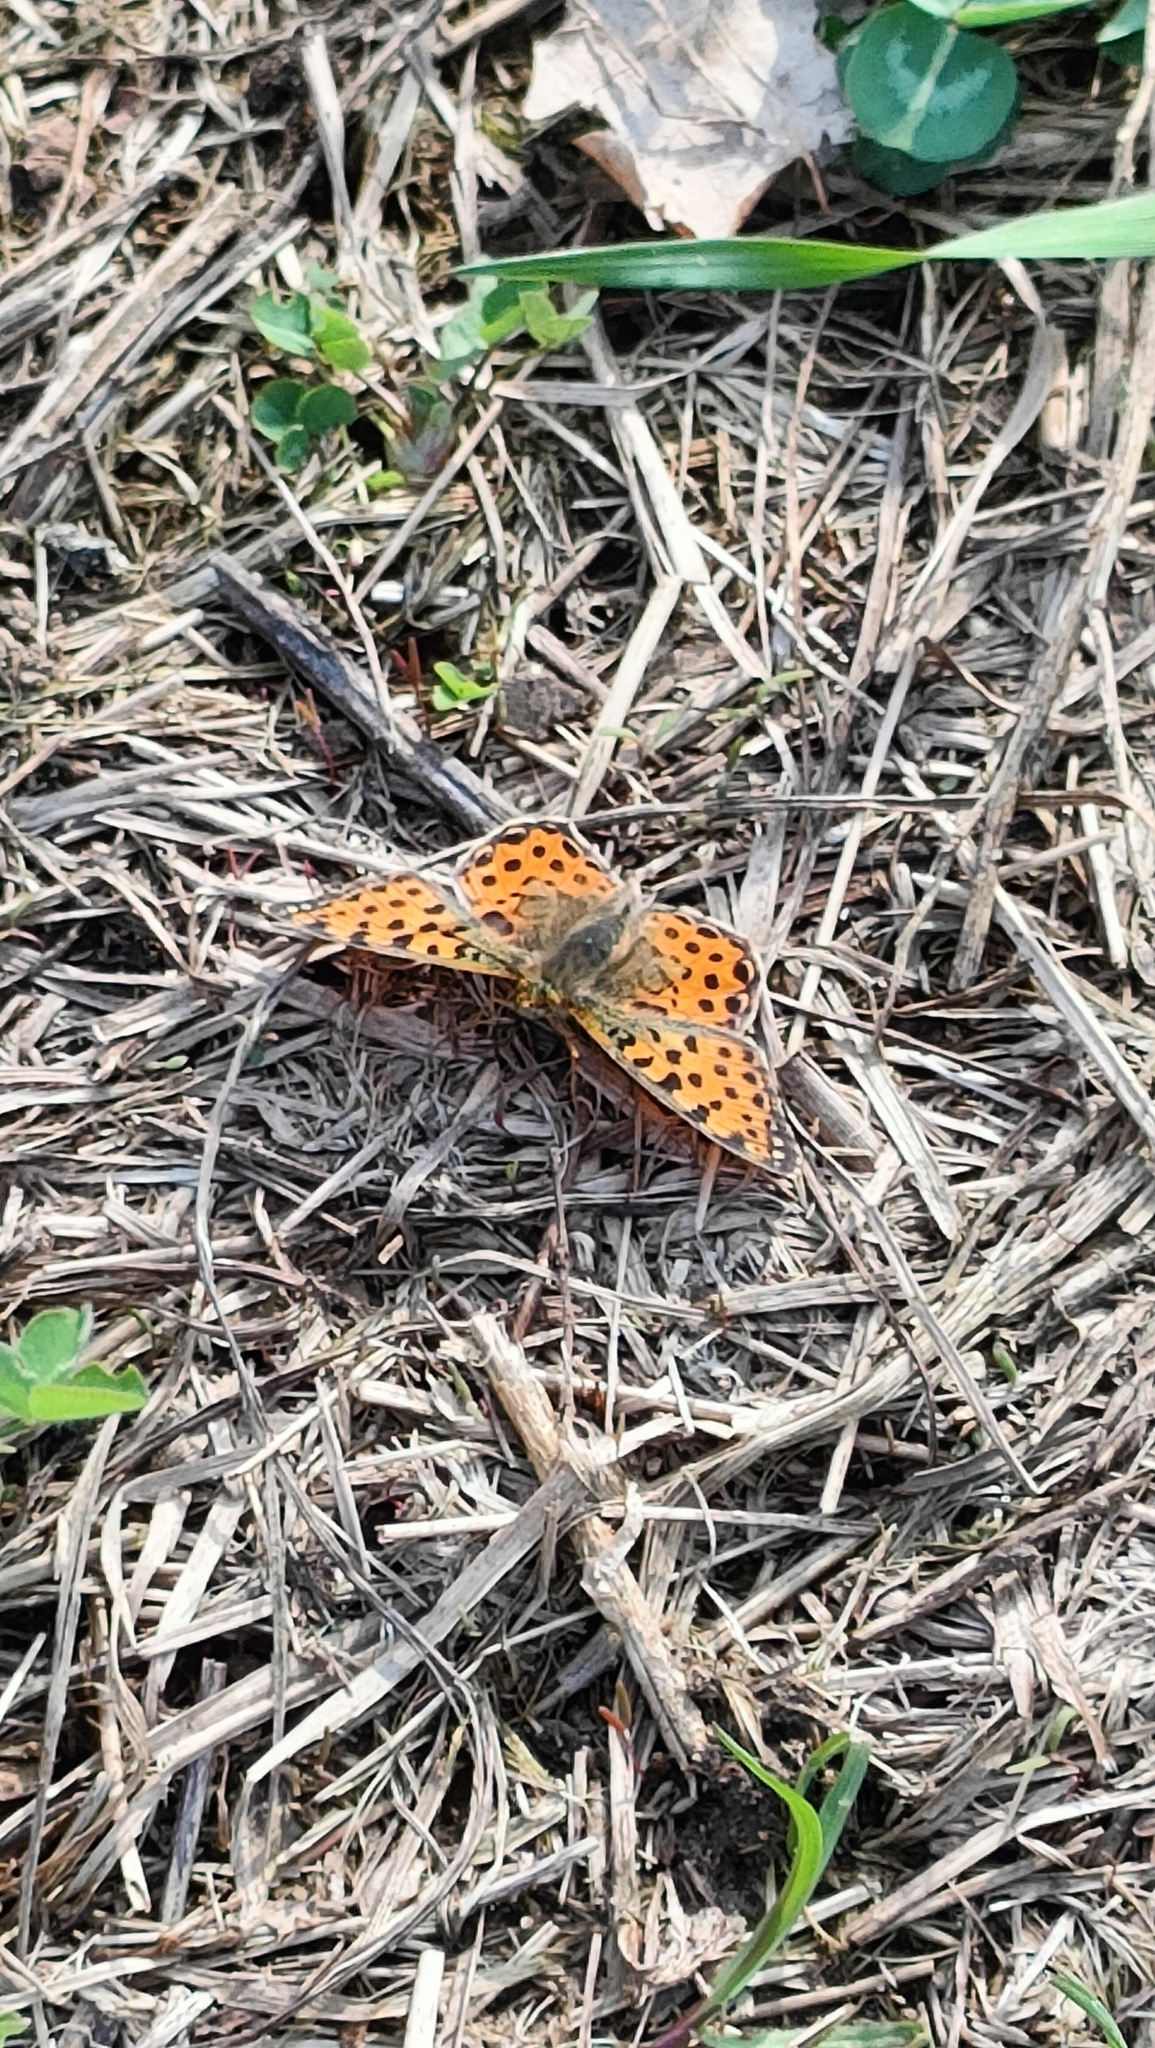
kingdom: Animalia
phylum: Arthropoda
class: Insecta
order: Lepidoptera
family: Nymphalidae
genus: Issoria
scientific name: Issoria lathonia
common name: Queen of spain fritillary
